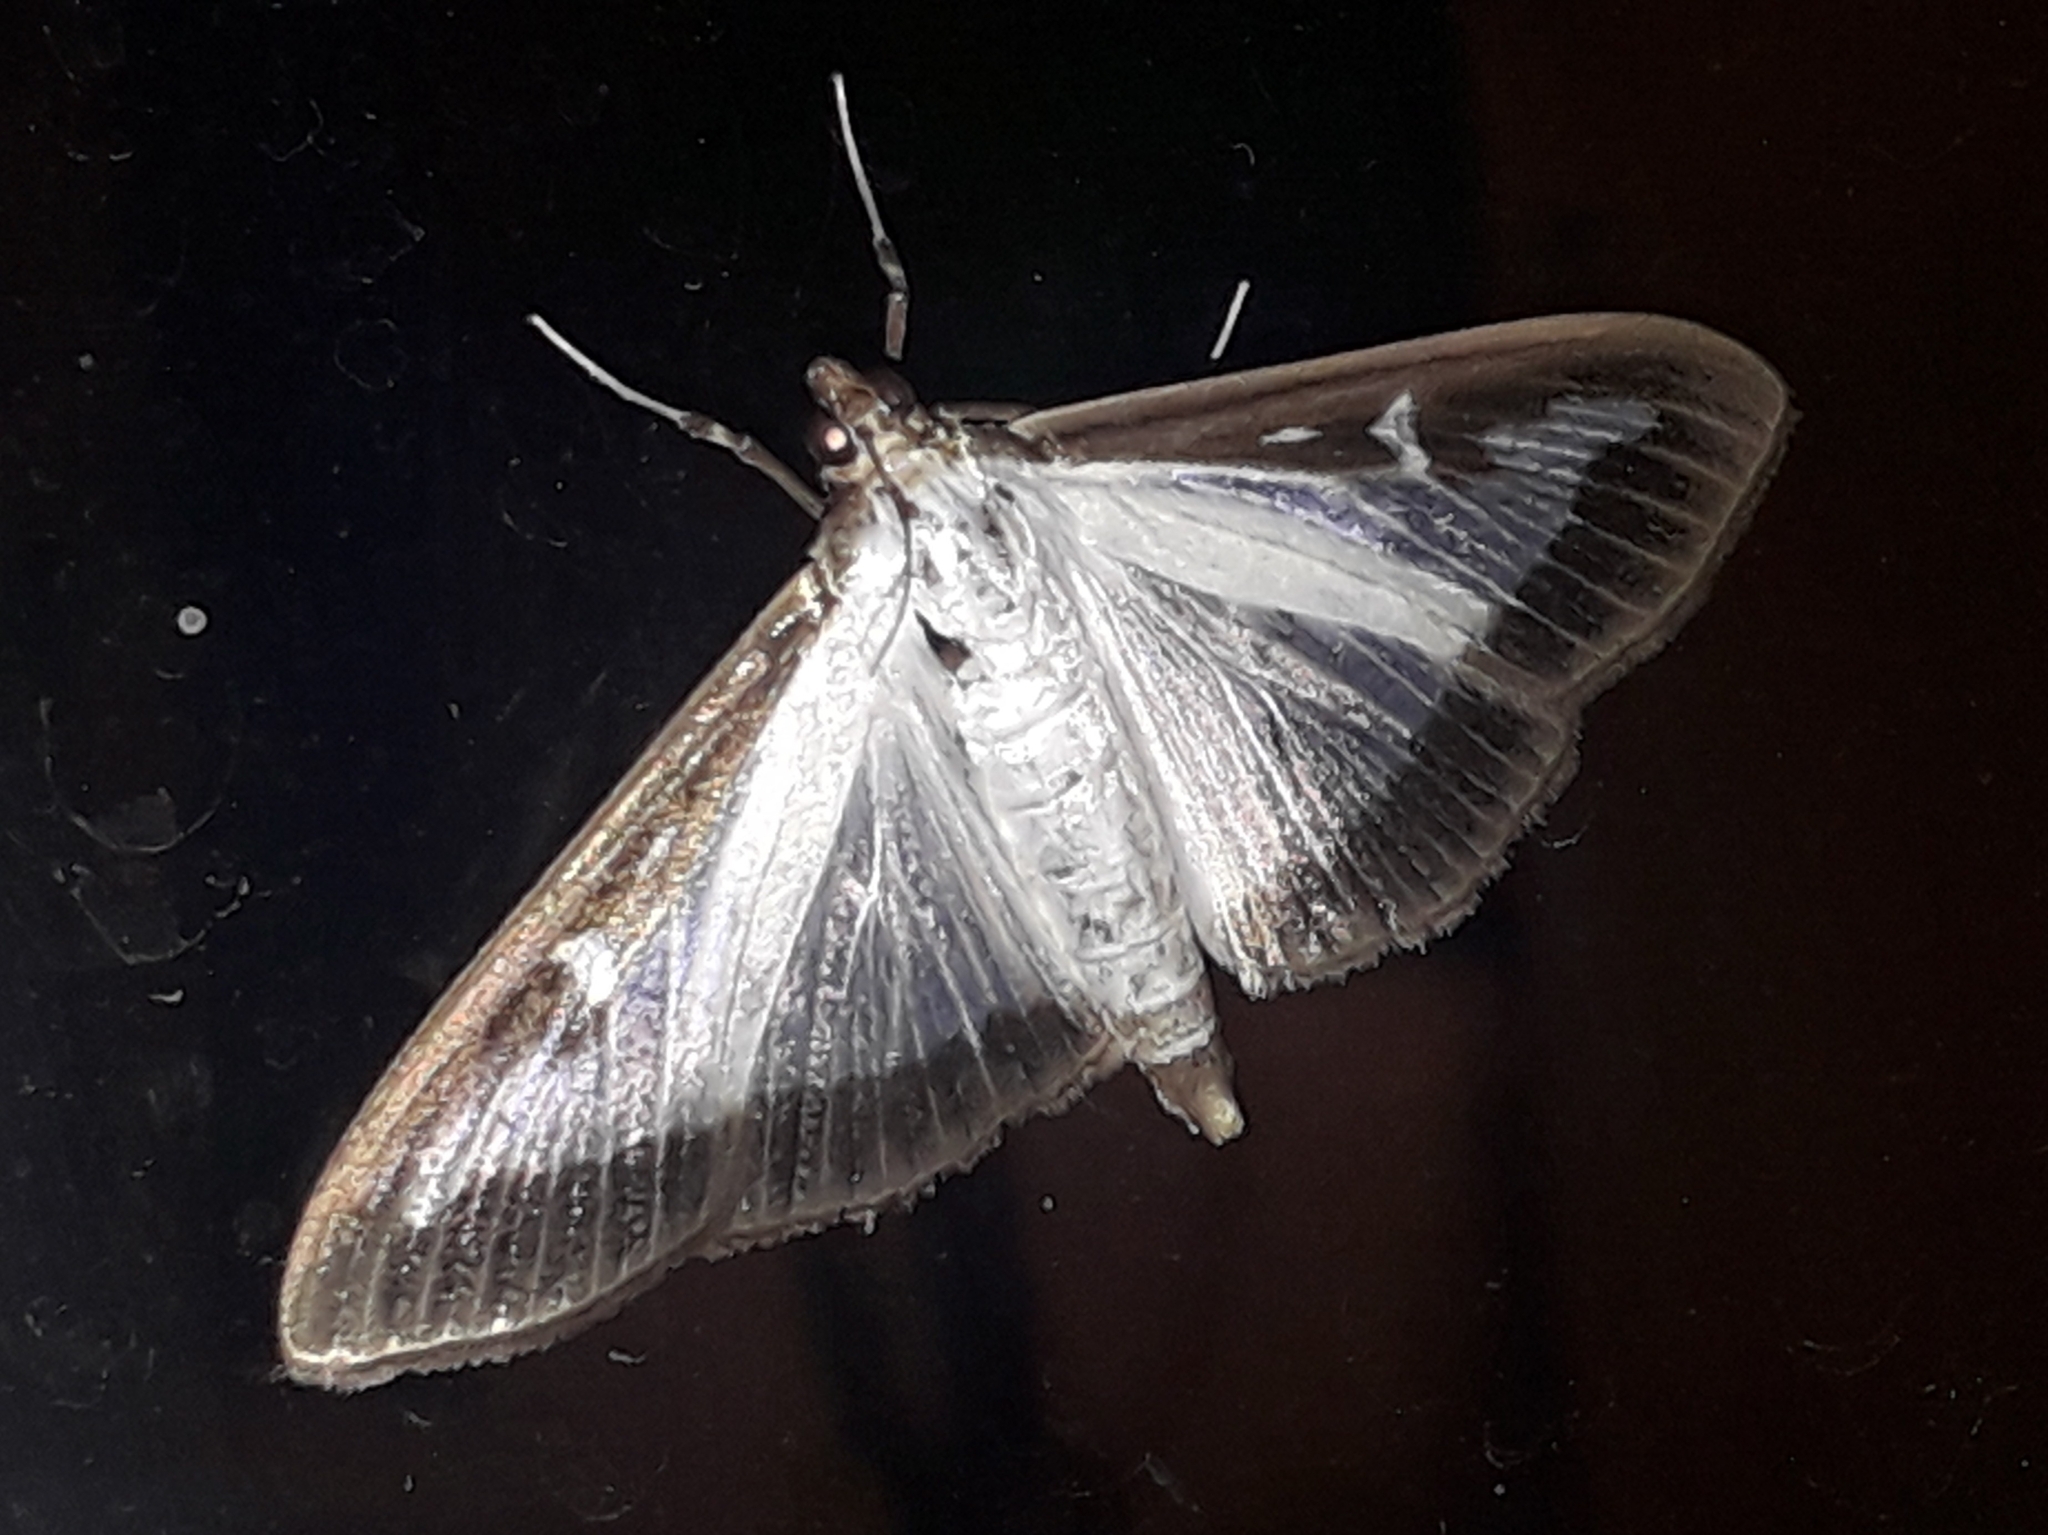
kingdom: Animalia
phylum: Arthropoda
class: Insecta
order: Lepidoptera
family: Crambidae
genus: Cydalima
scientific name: Cydalima perspectalis
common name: Box tree moth
